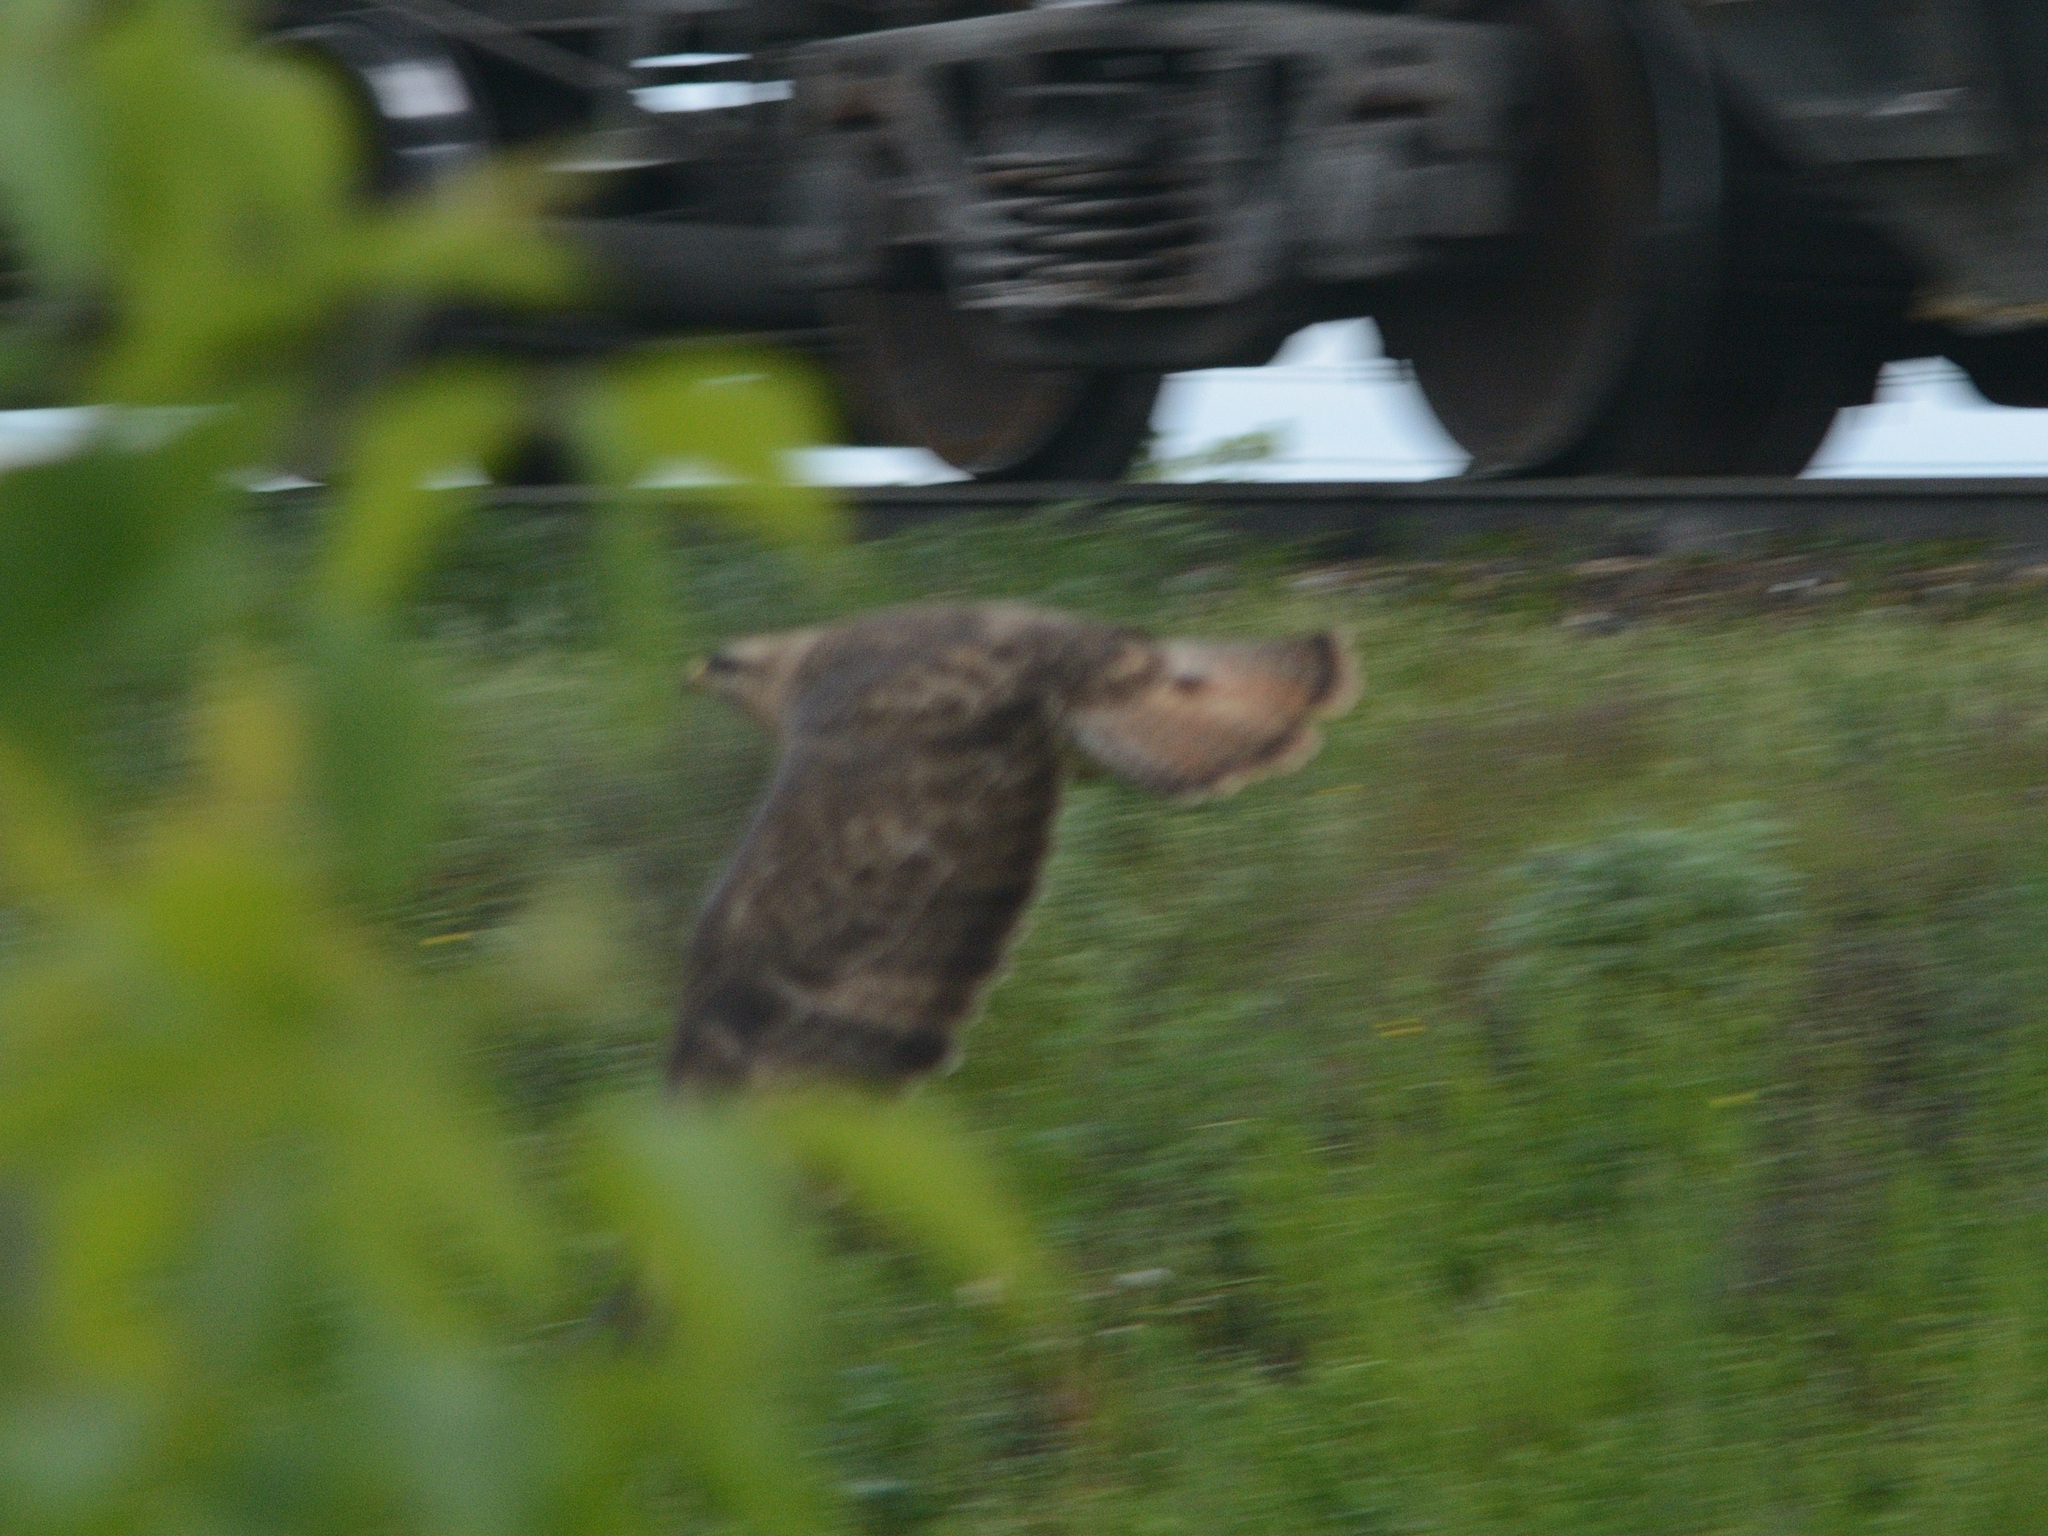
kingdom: Animalia
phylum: Chordata
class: Aves
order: Accipitriformes
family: Accipitridae
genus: Buteo
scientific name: Buteo buteo
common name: Common buzzard
